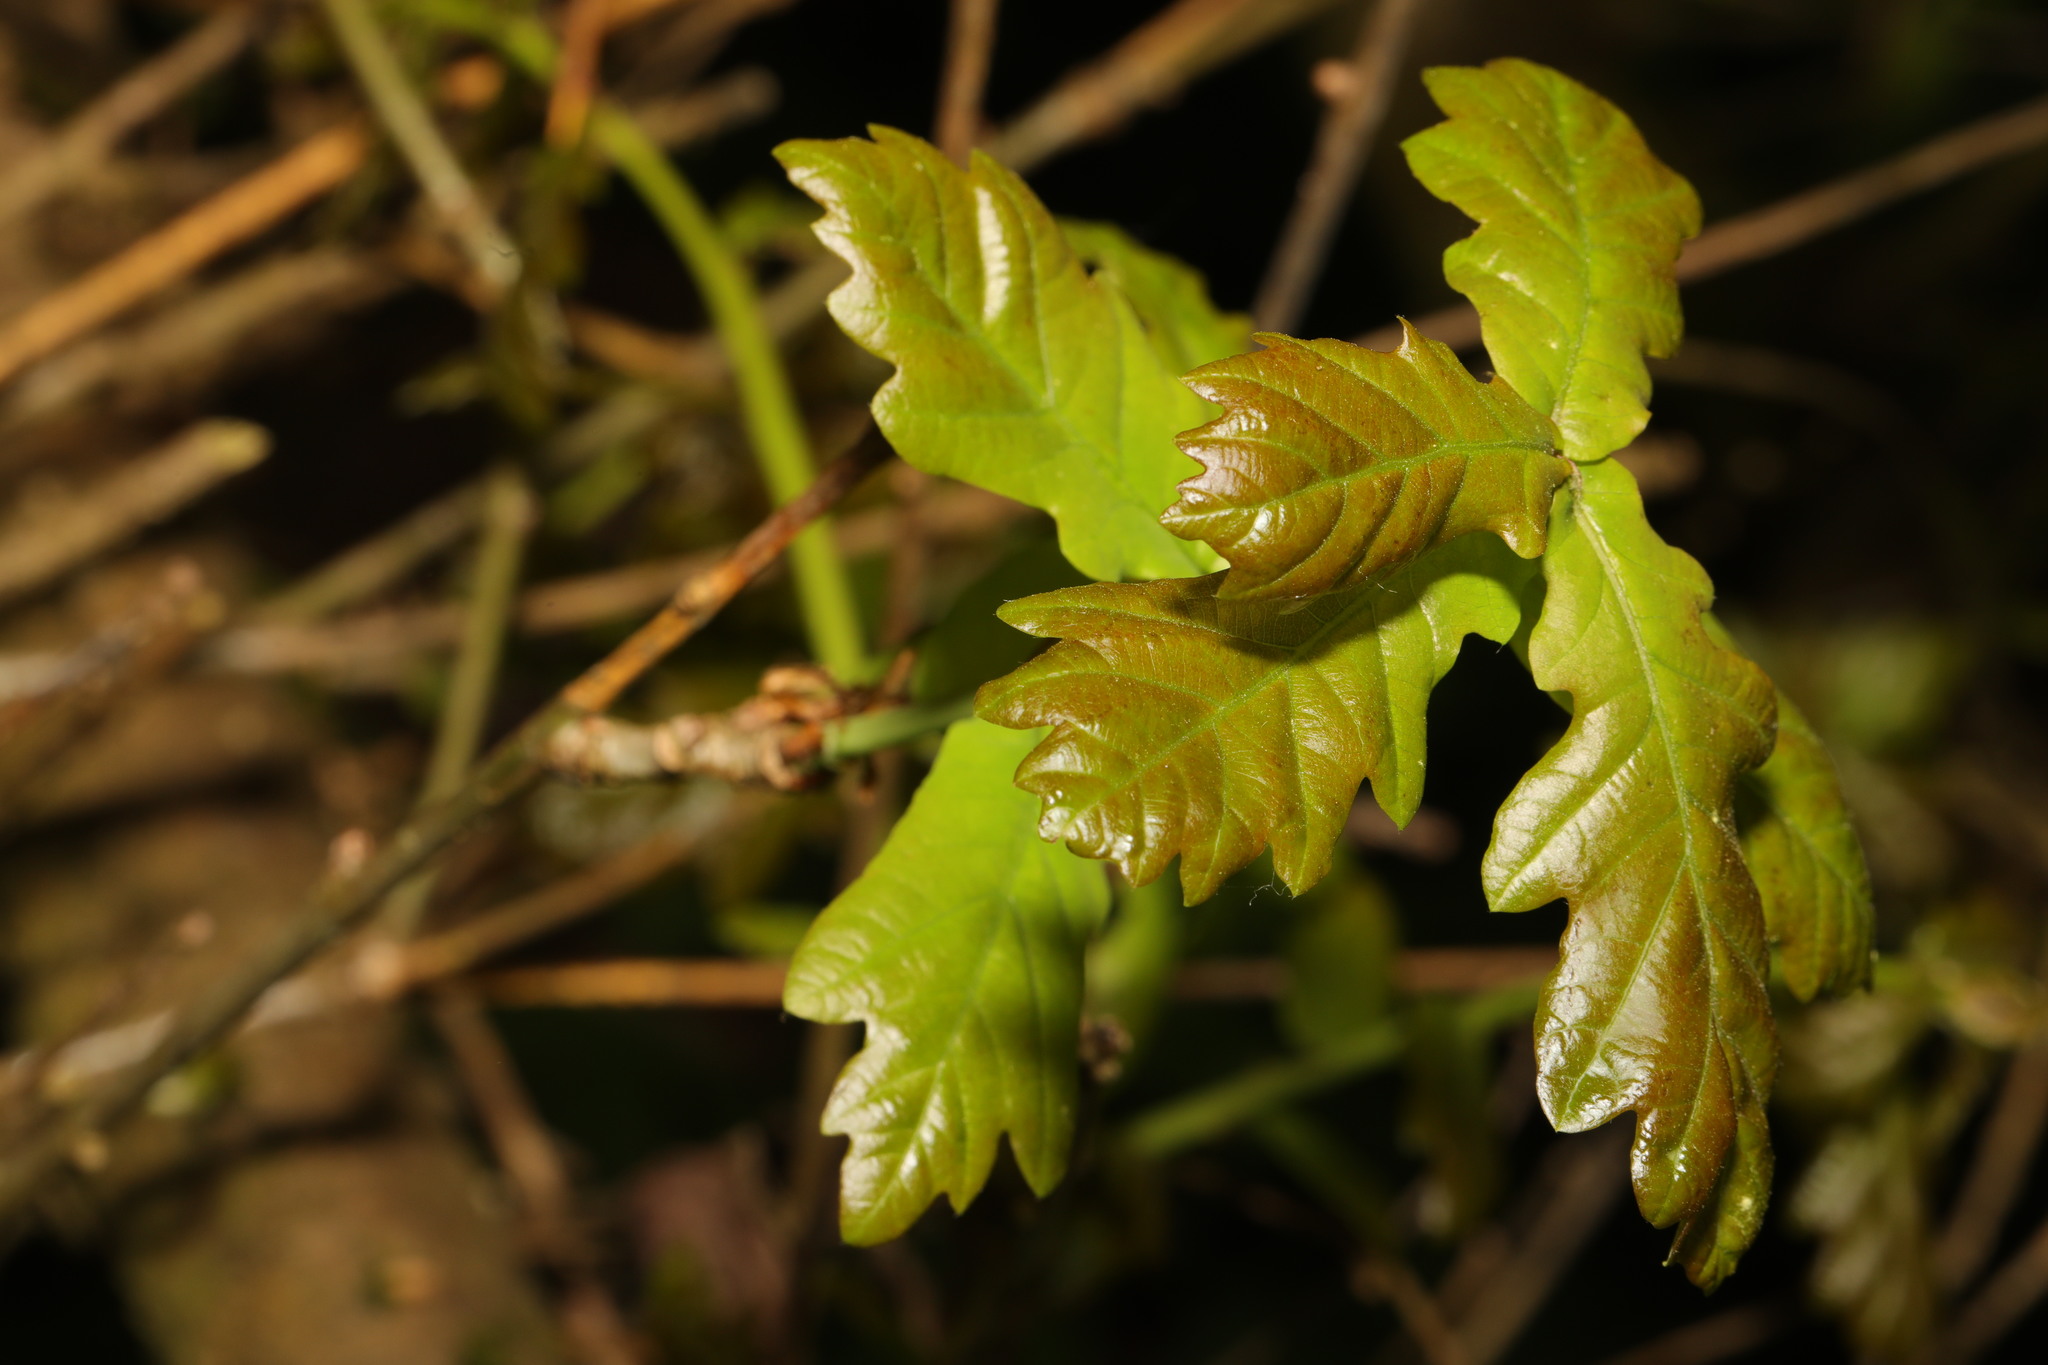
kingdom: Plantae
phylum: Tracheophyta
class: Magnoliopsida
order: Fagales
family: Fagaceae
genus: Quercus
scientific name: Quercus robur
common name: Pedunculate oak
